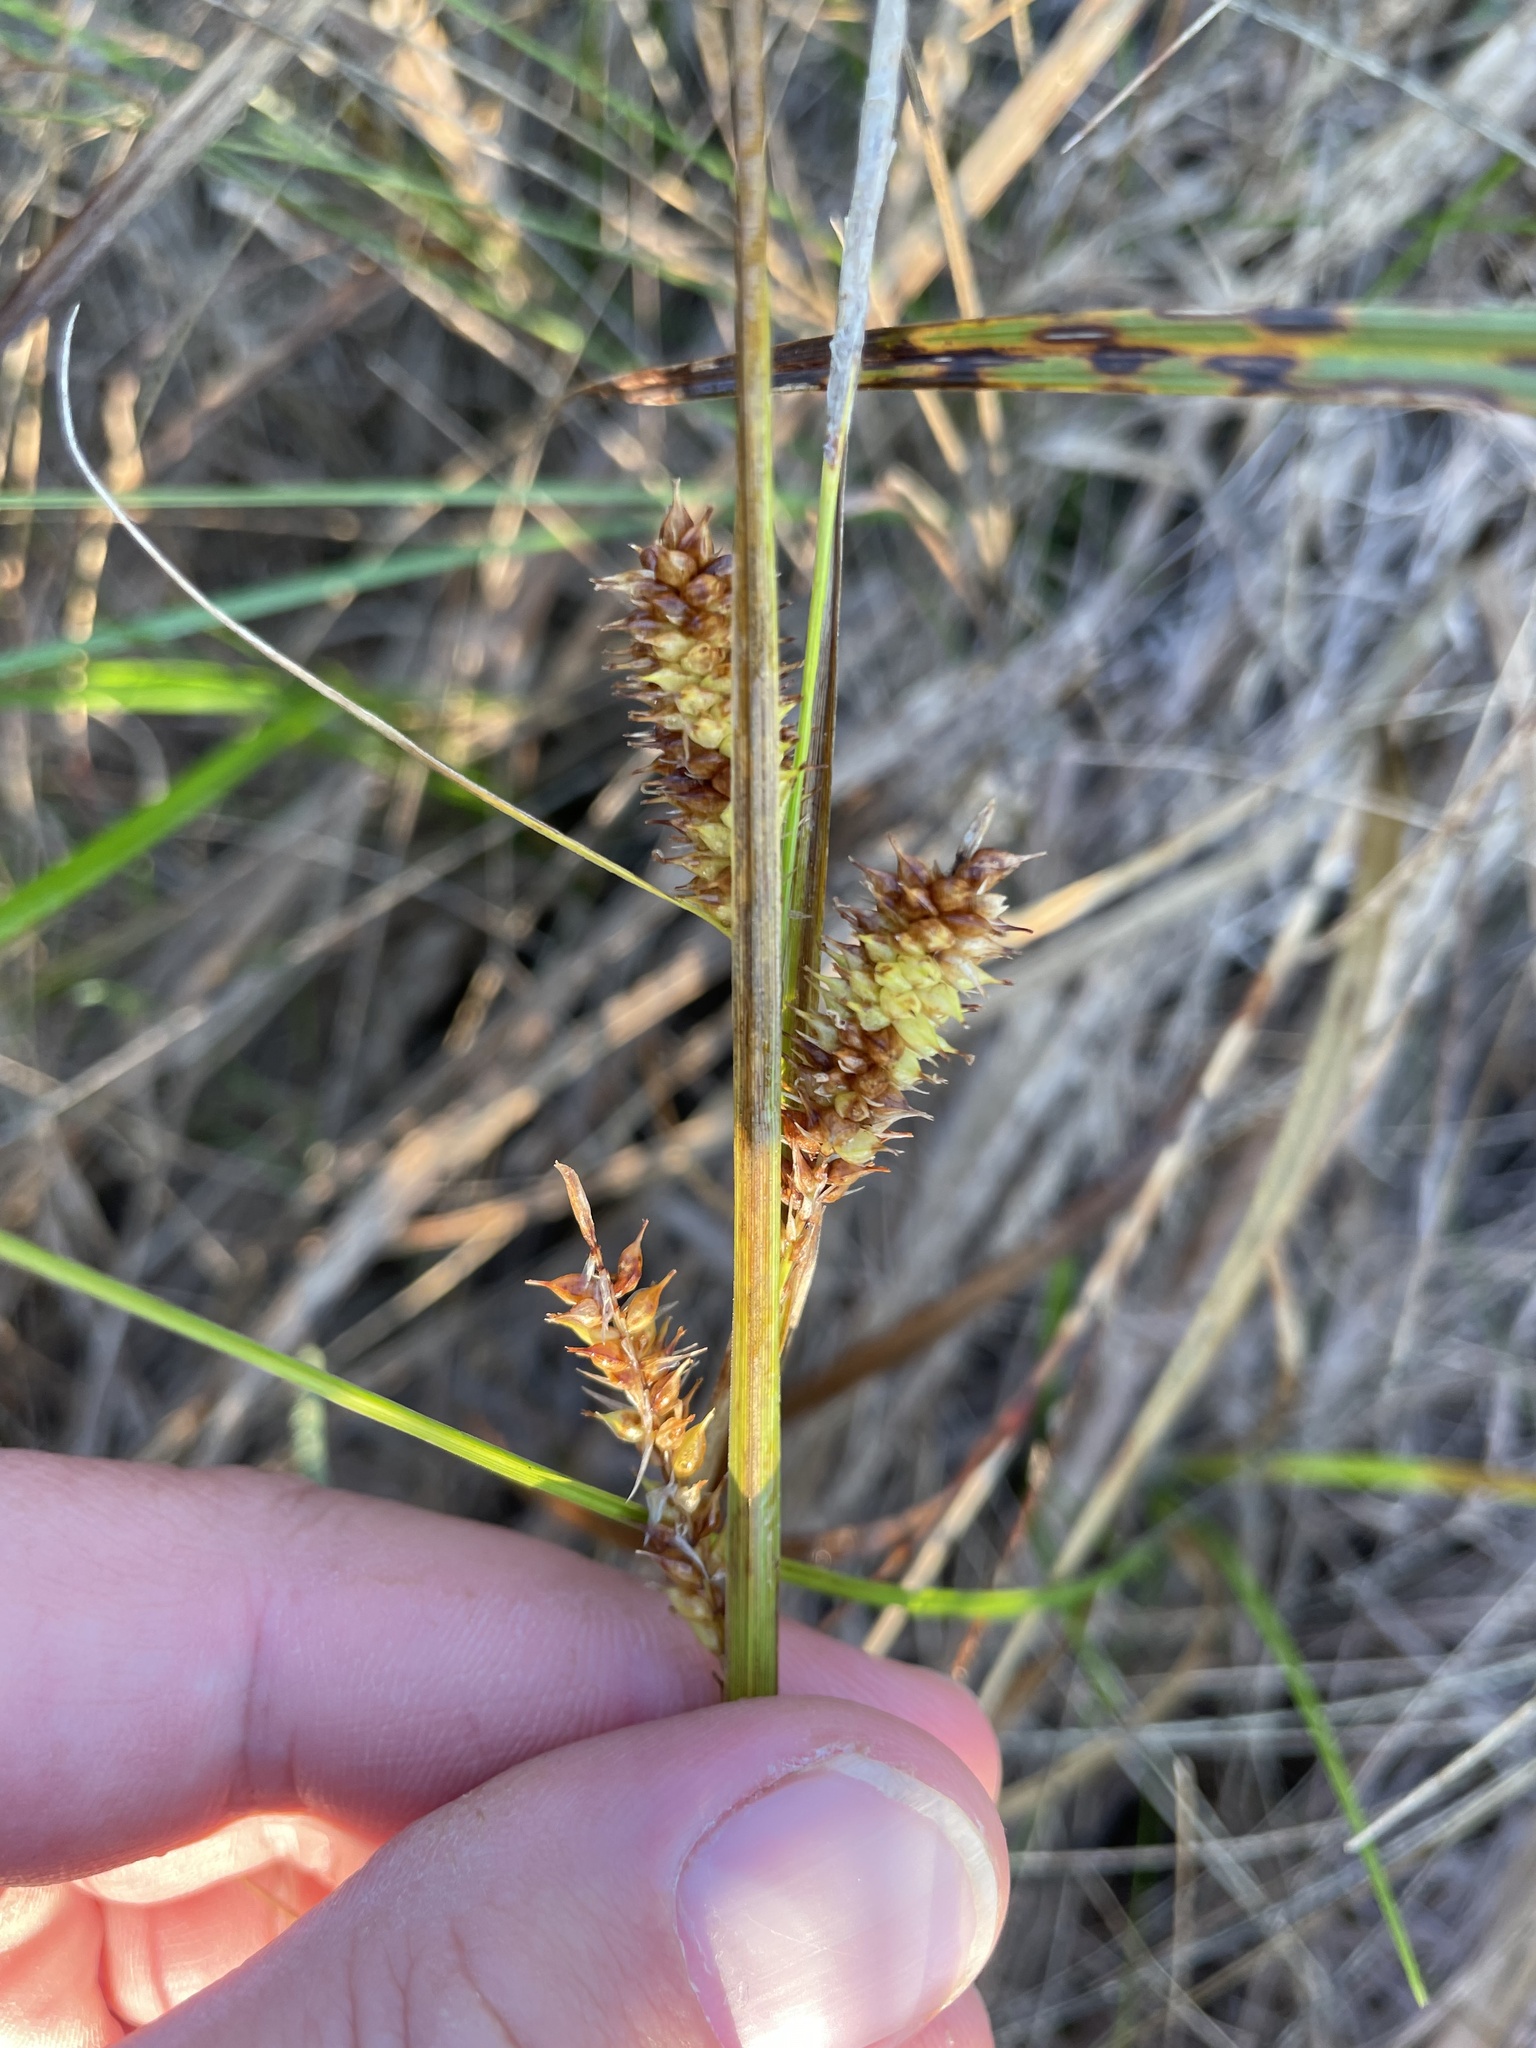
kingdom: Plantae
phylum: Tracheophyta
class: Liliopsida
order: Poales
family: Cyperaceae
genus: Carex
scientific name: Carex utriculata
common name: Beaked sedge
